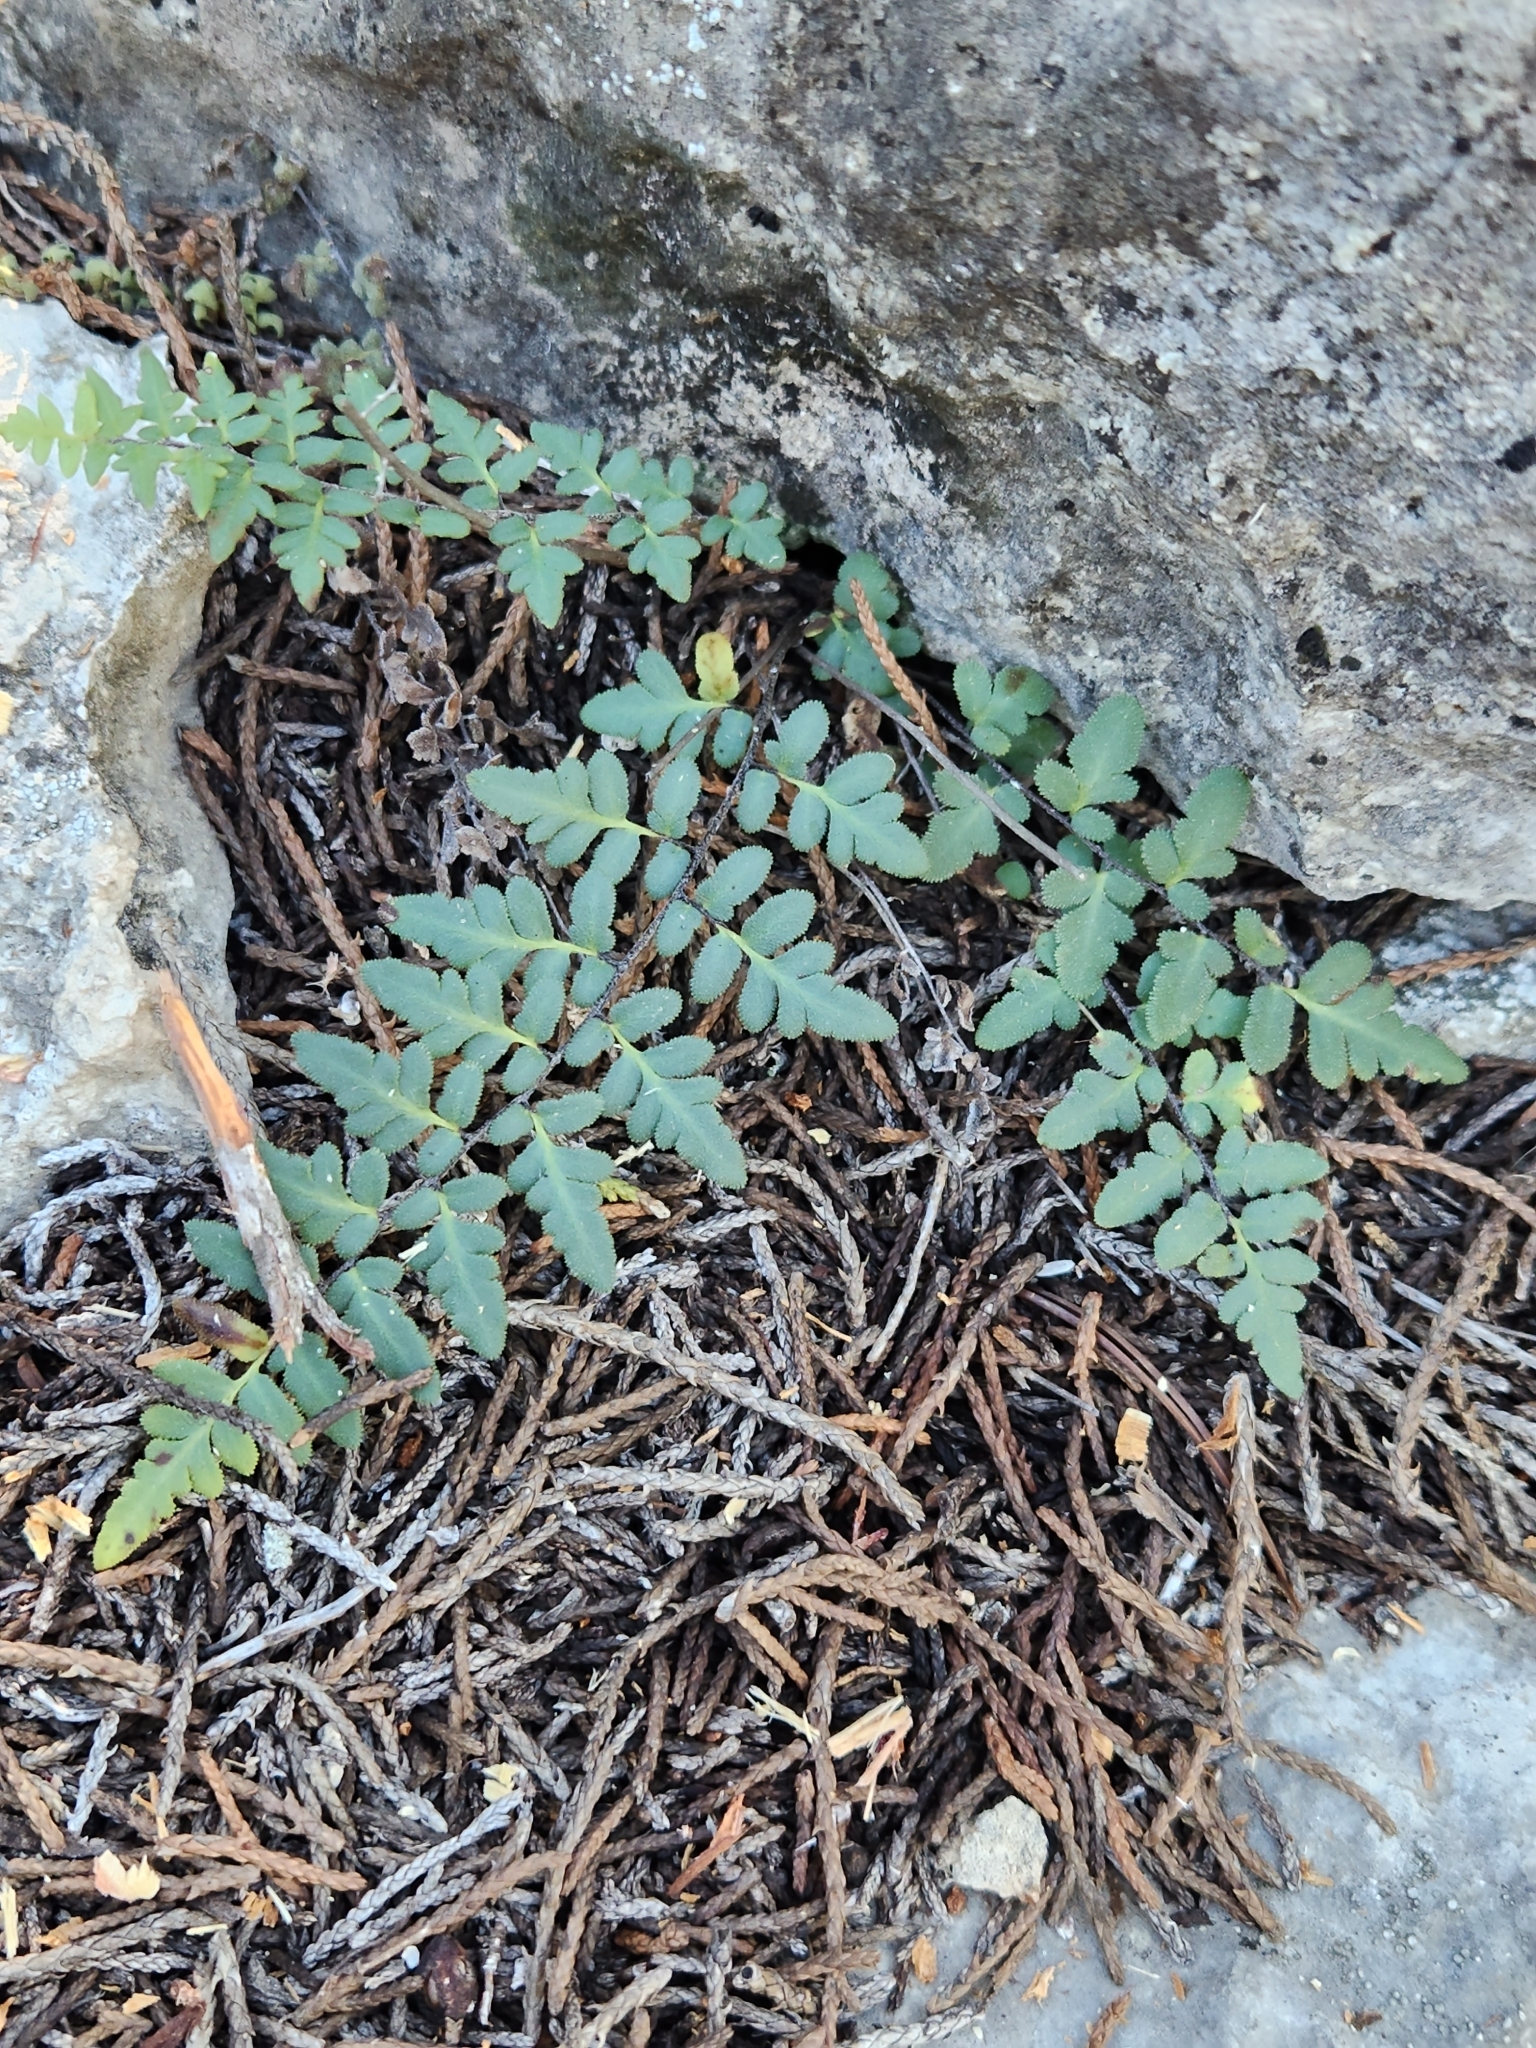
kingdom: Plantae
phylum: Tracheophyta
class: Polypodiopsida
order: Polypodiales
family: Pteridaceae
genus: Myriopteris
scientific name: Myriopteris scabra
